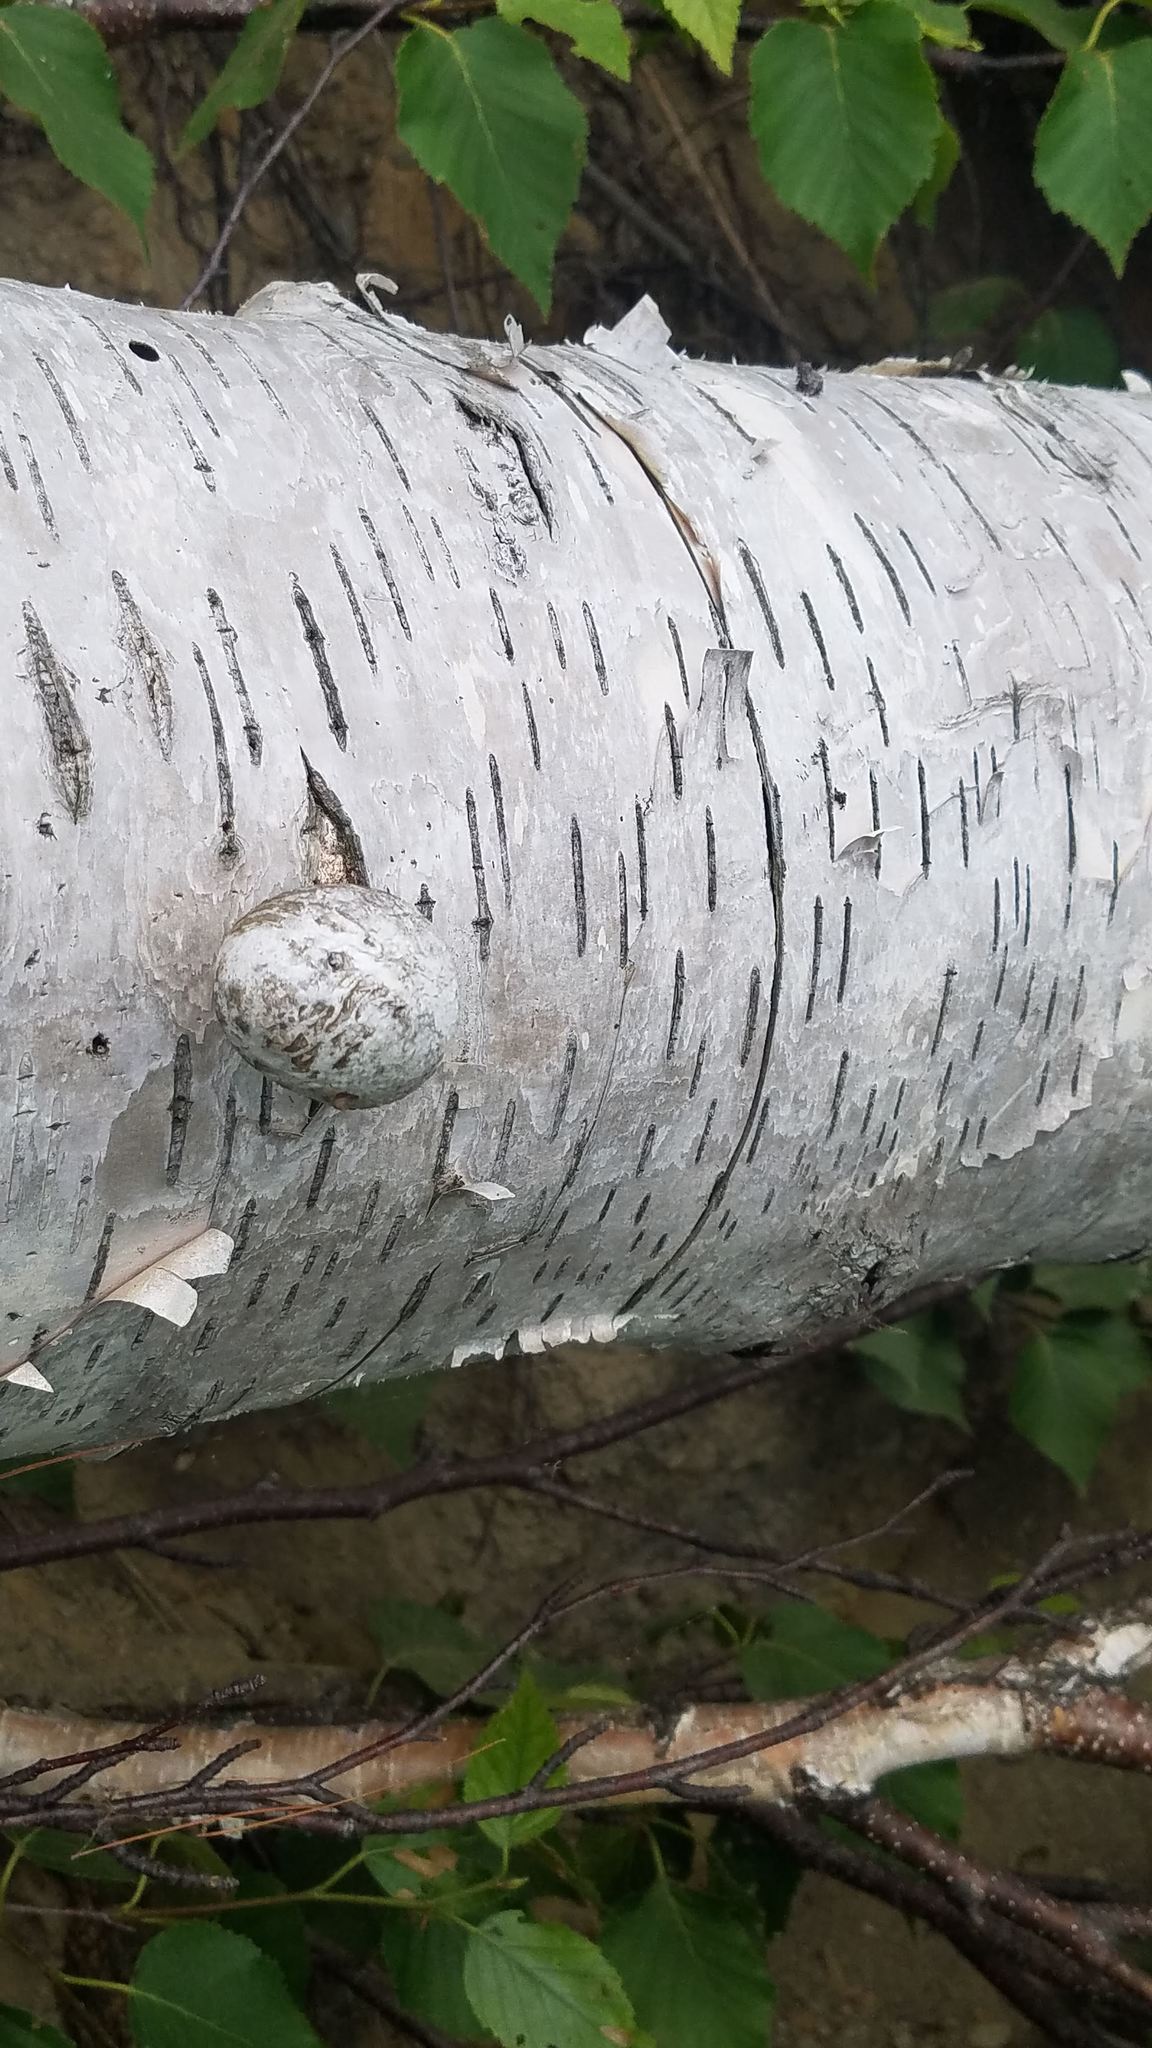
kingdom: Fungi
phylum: Basidiomycota
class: Agaricomycetes
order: Polyporales
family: Fomitopsidaceae
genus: Fomitopsis
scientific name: Fomitopsis betulina
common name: Birch polypore
